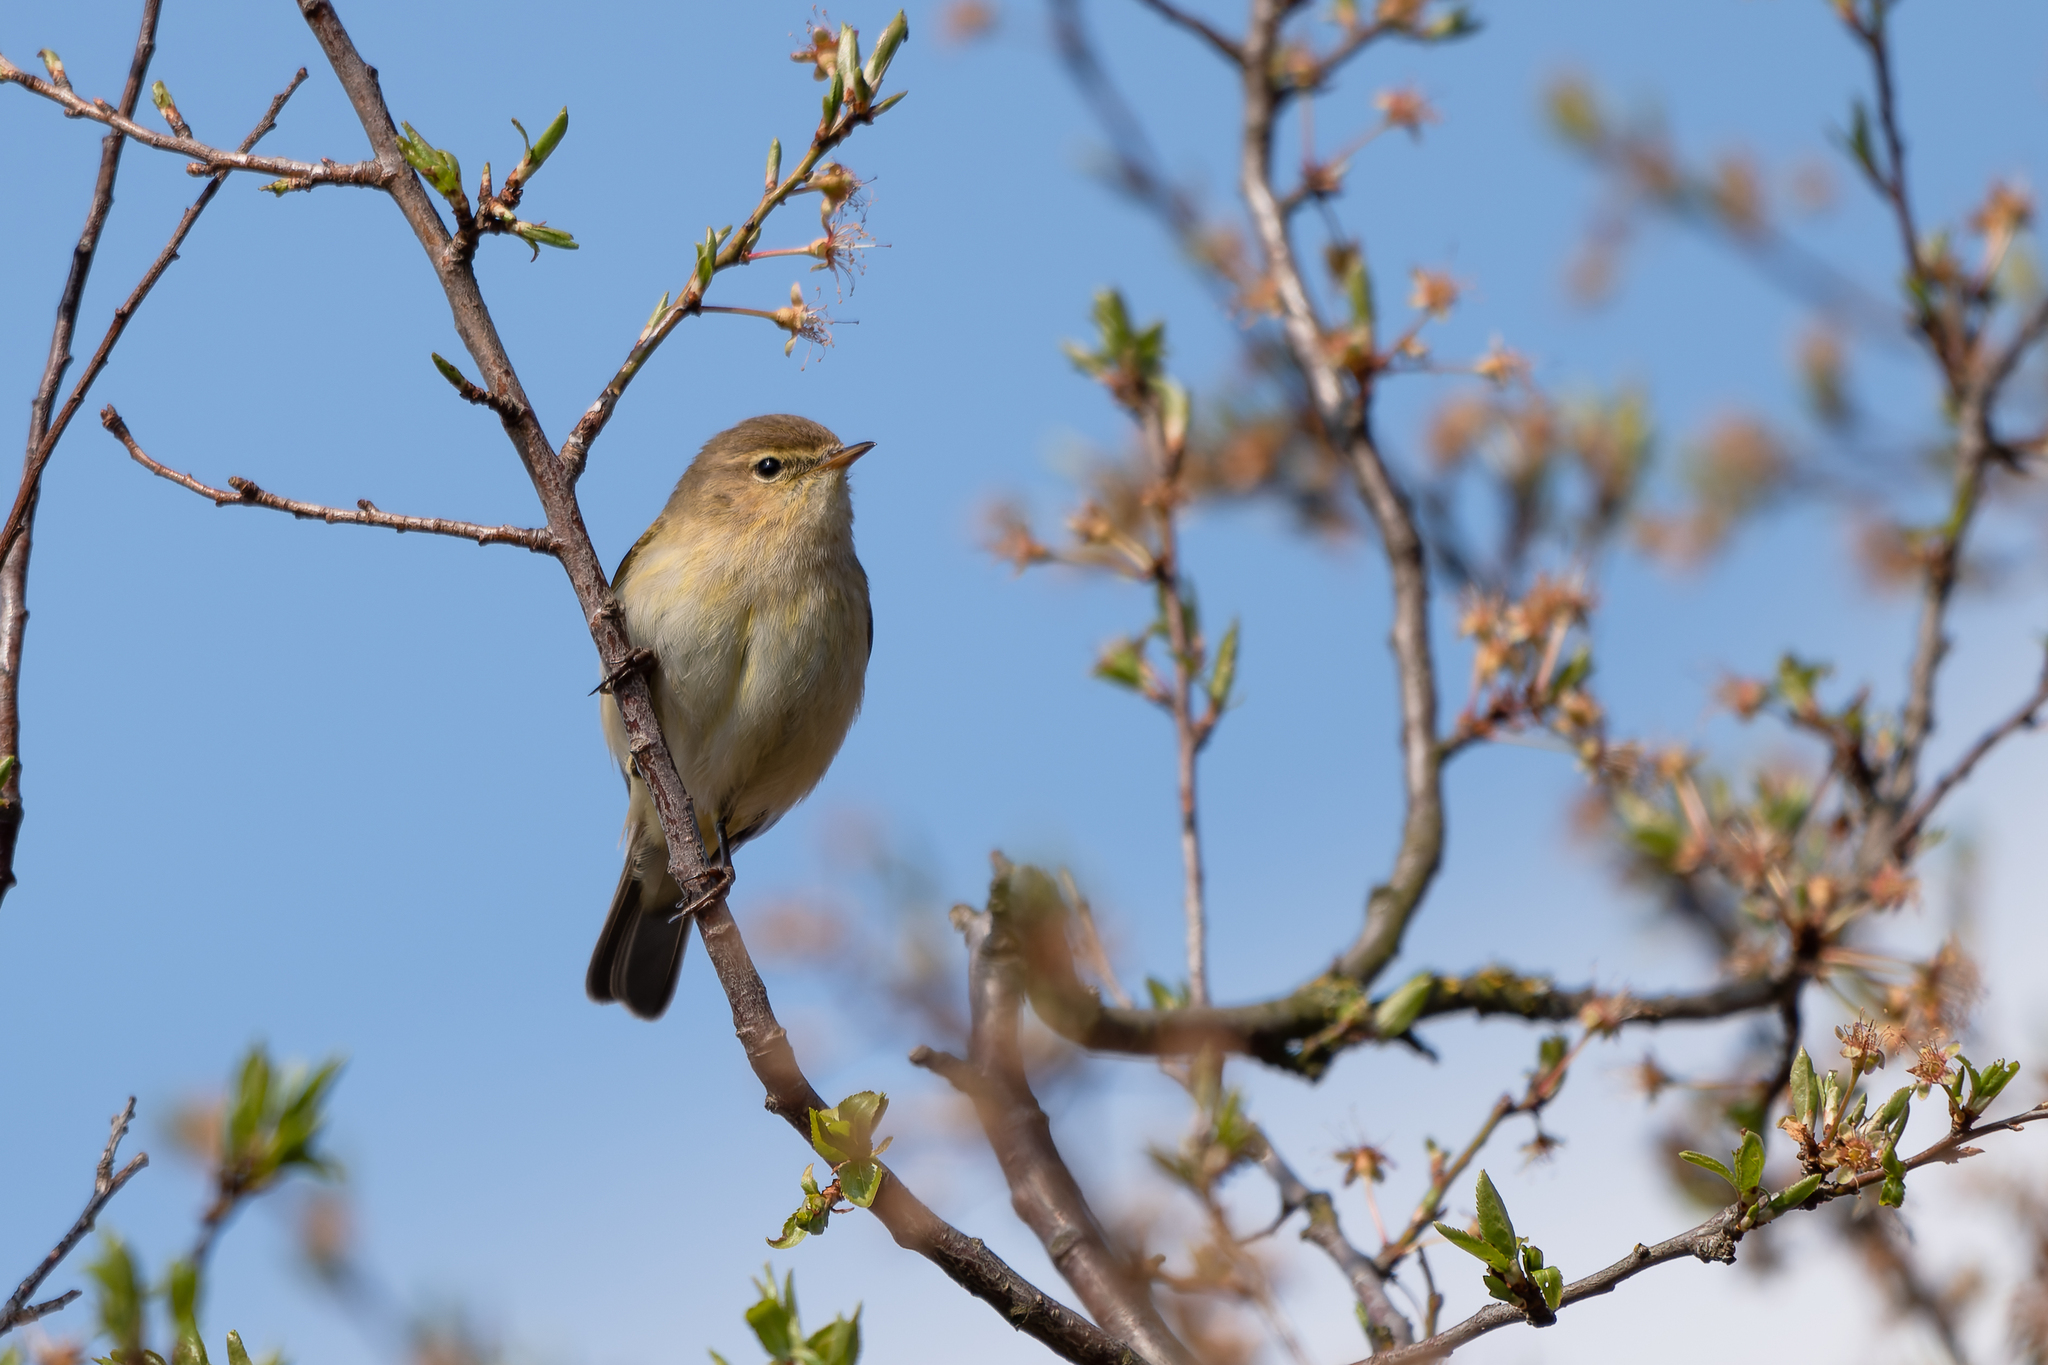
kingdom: Animalia
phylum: Chordata
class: Aves
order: Passeriformes
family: Phylloscopidae
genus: Phylloscopus
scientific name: Phylloscopus collybita
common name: Common chiffchaff
